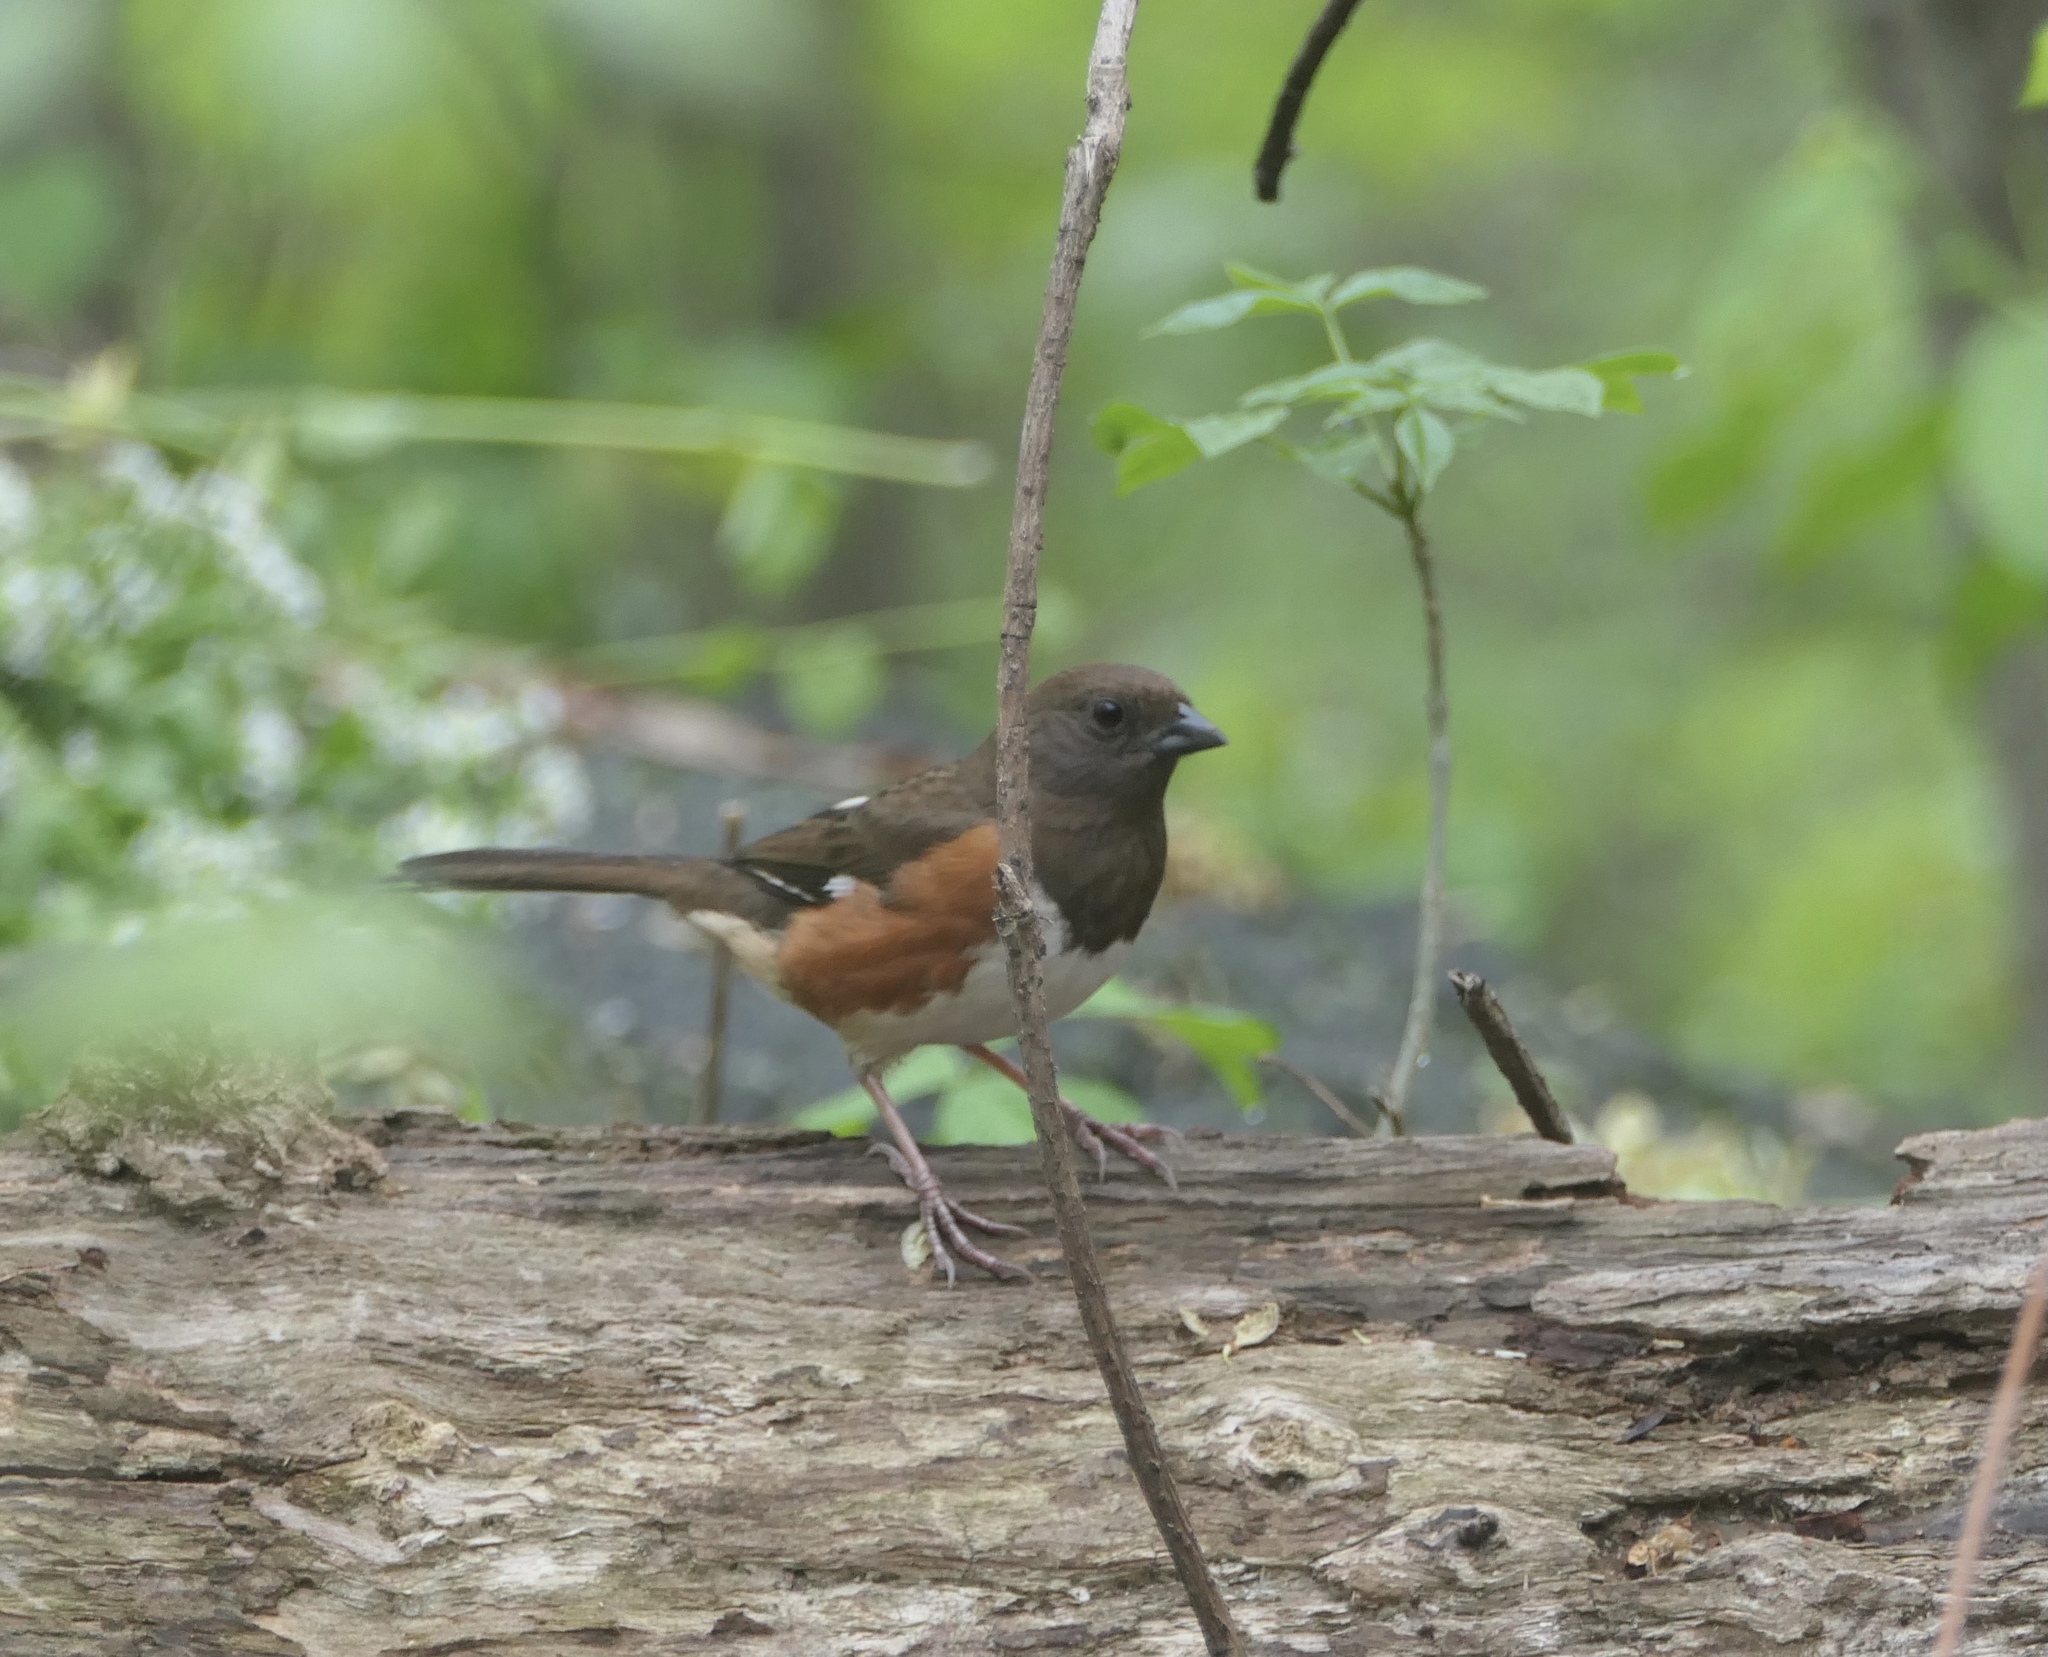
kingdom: Animalia
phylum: Chordata
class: Aves
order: Passeriformes
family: Passerellidae
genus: Pipilo
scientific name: Pipilo erythrophthalmus
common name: Eastern towhee
